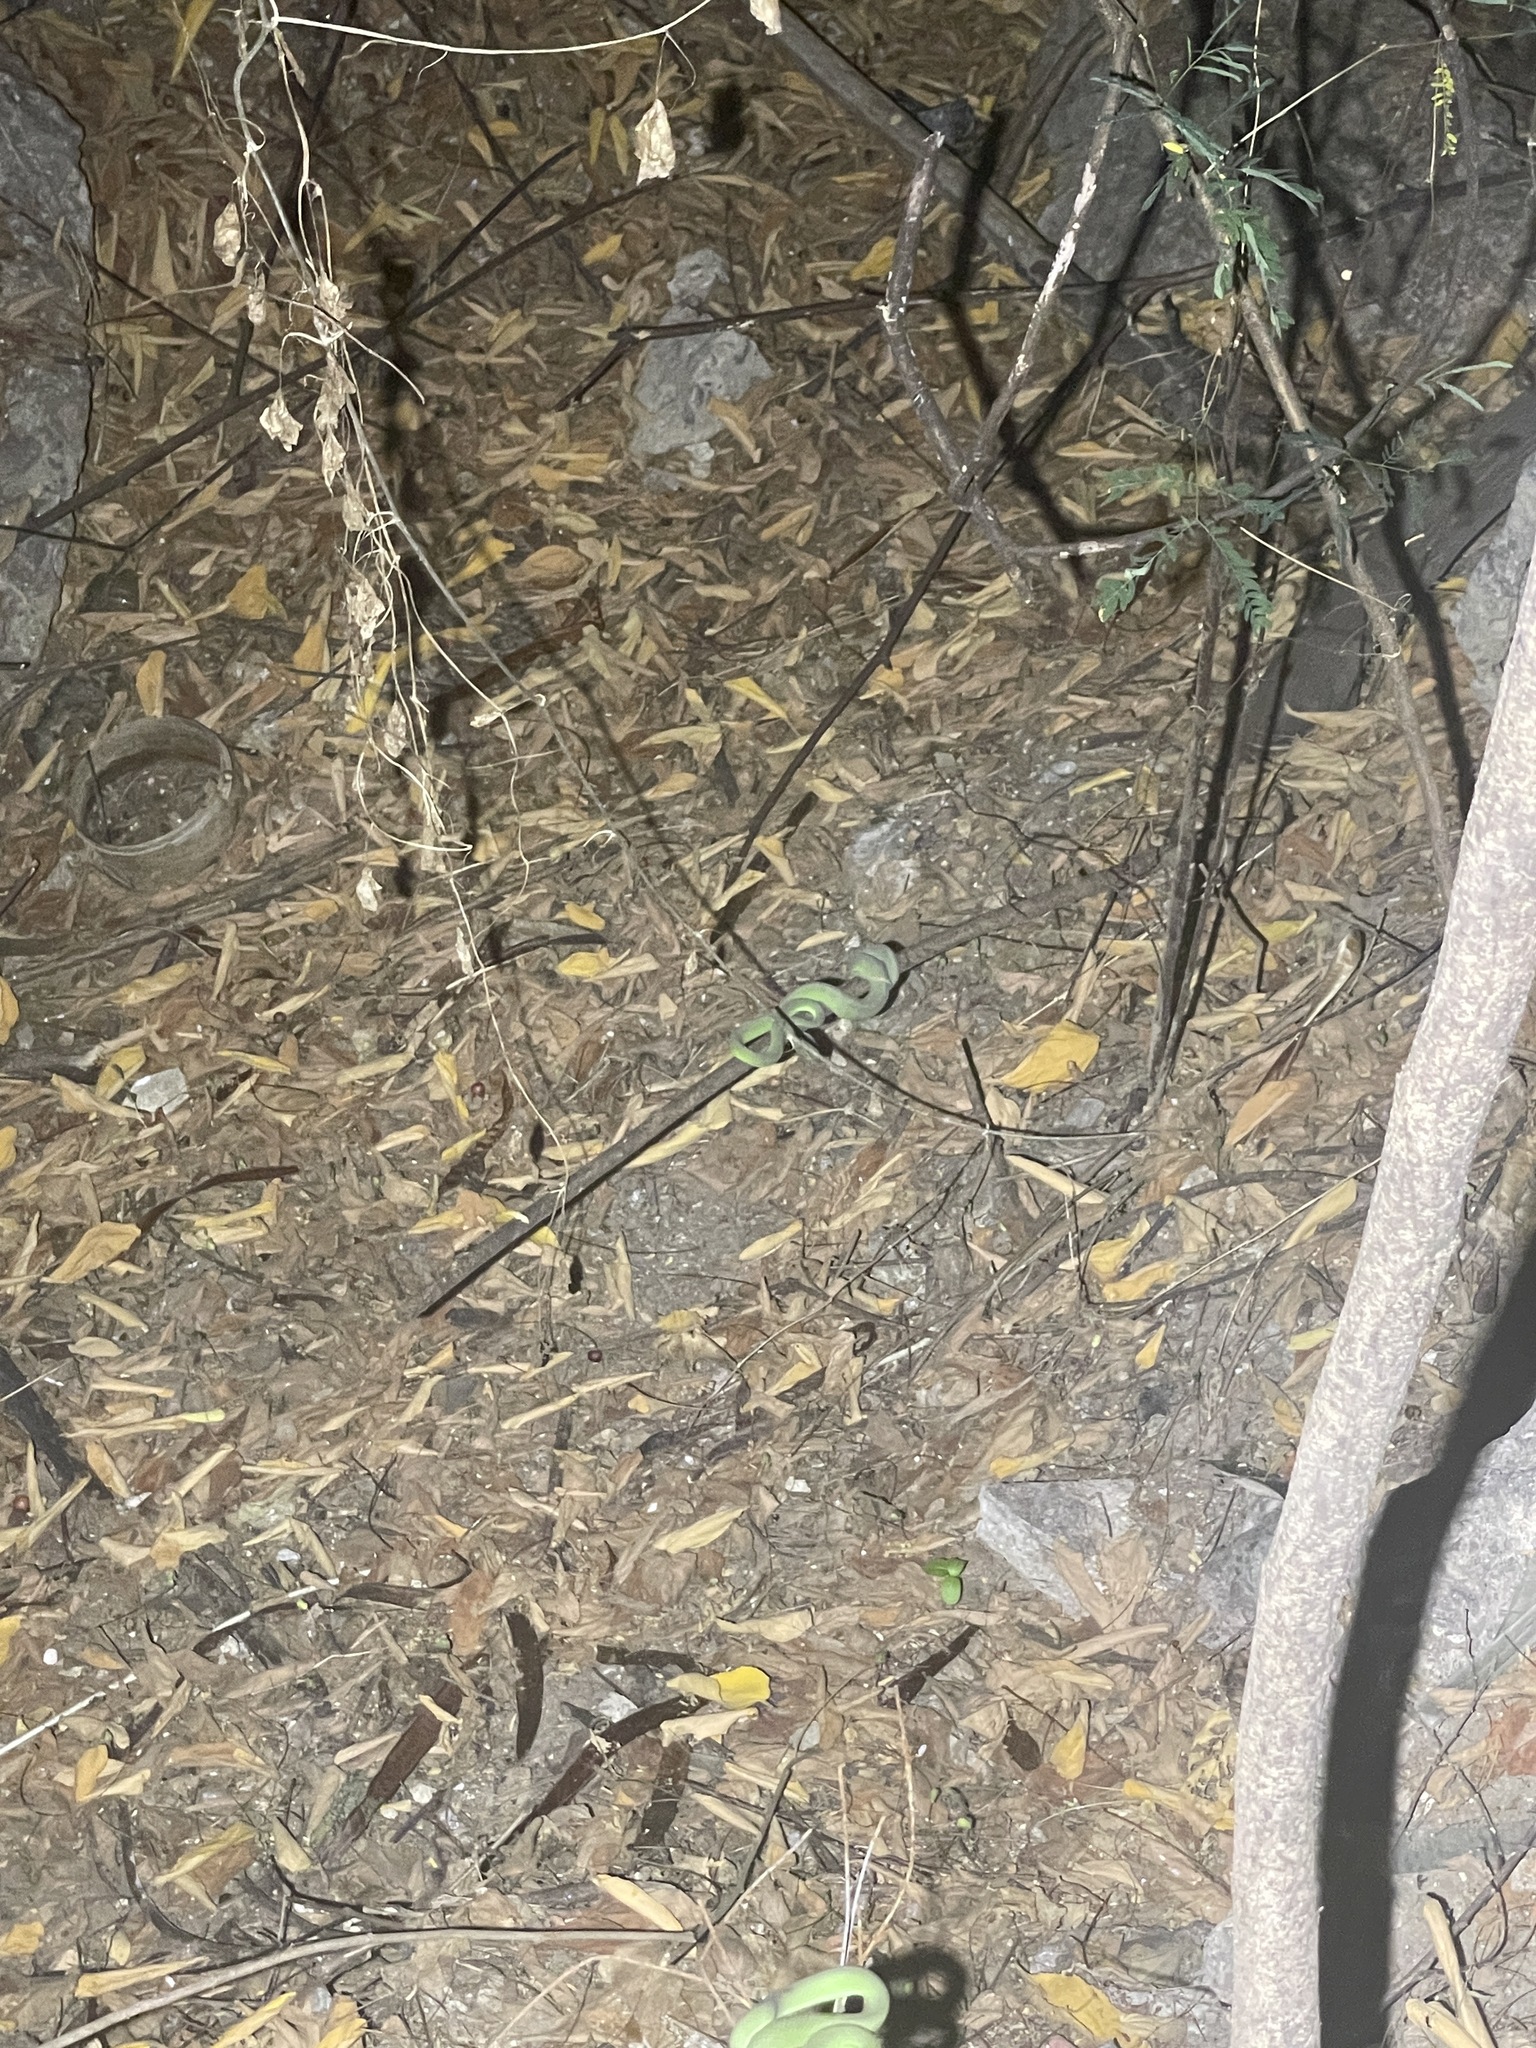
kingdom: Animalia
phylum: Chordata
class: Squamata
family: Viperidae
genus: Trimeresurus
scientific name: Trimeresurus macrops
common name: Kramer's pit viper
